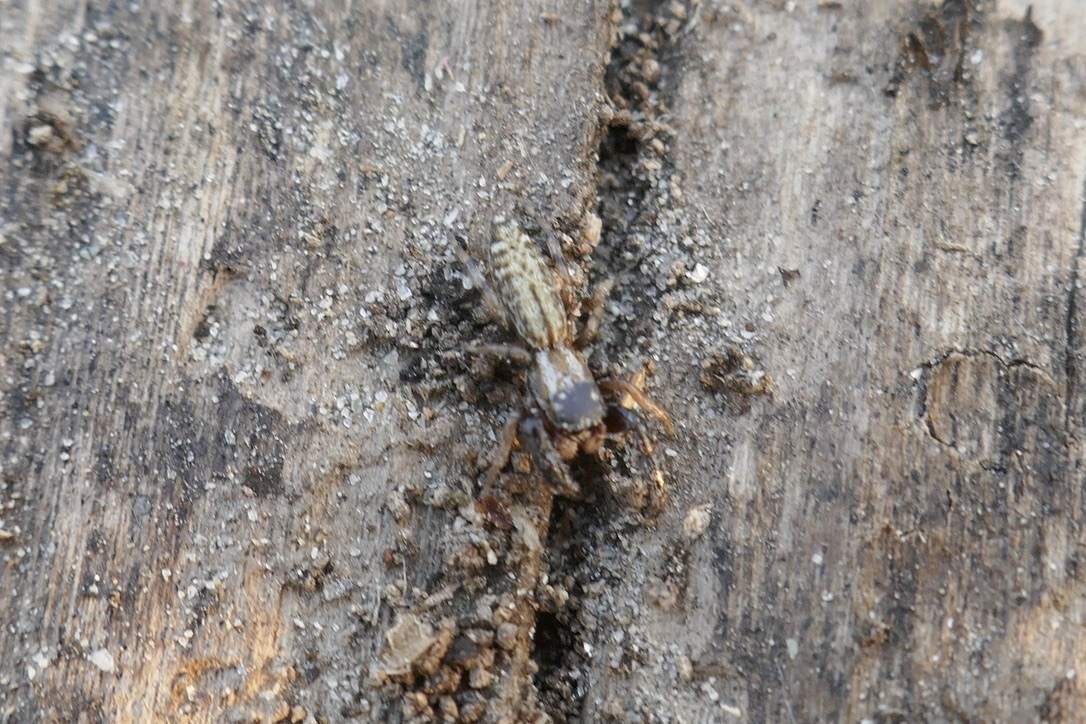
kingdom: Animalia
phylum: Arthropoda
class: Arachnida
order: Araneae
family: Salticidae
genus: Marpissa
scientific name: Marpissa nivoyi
